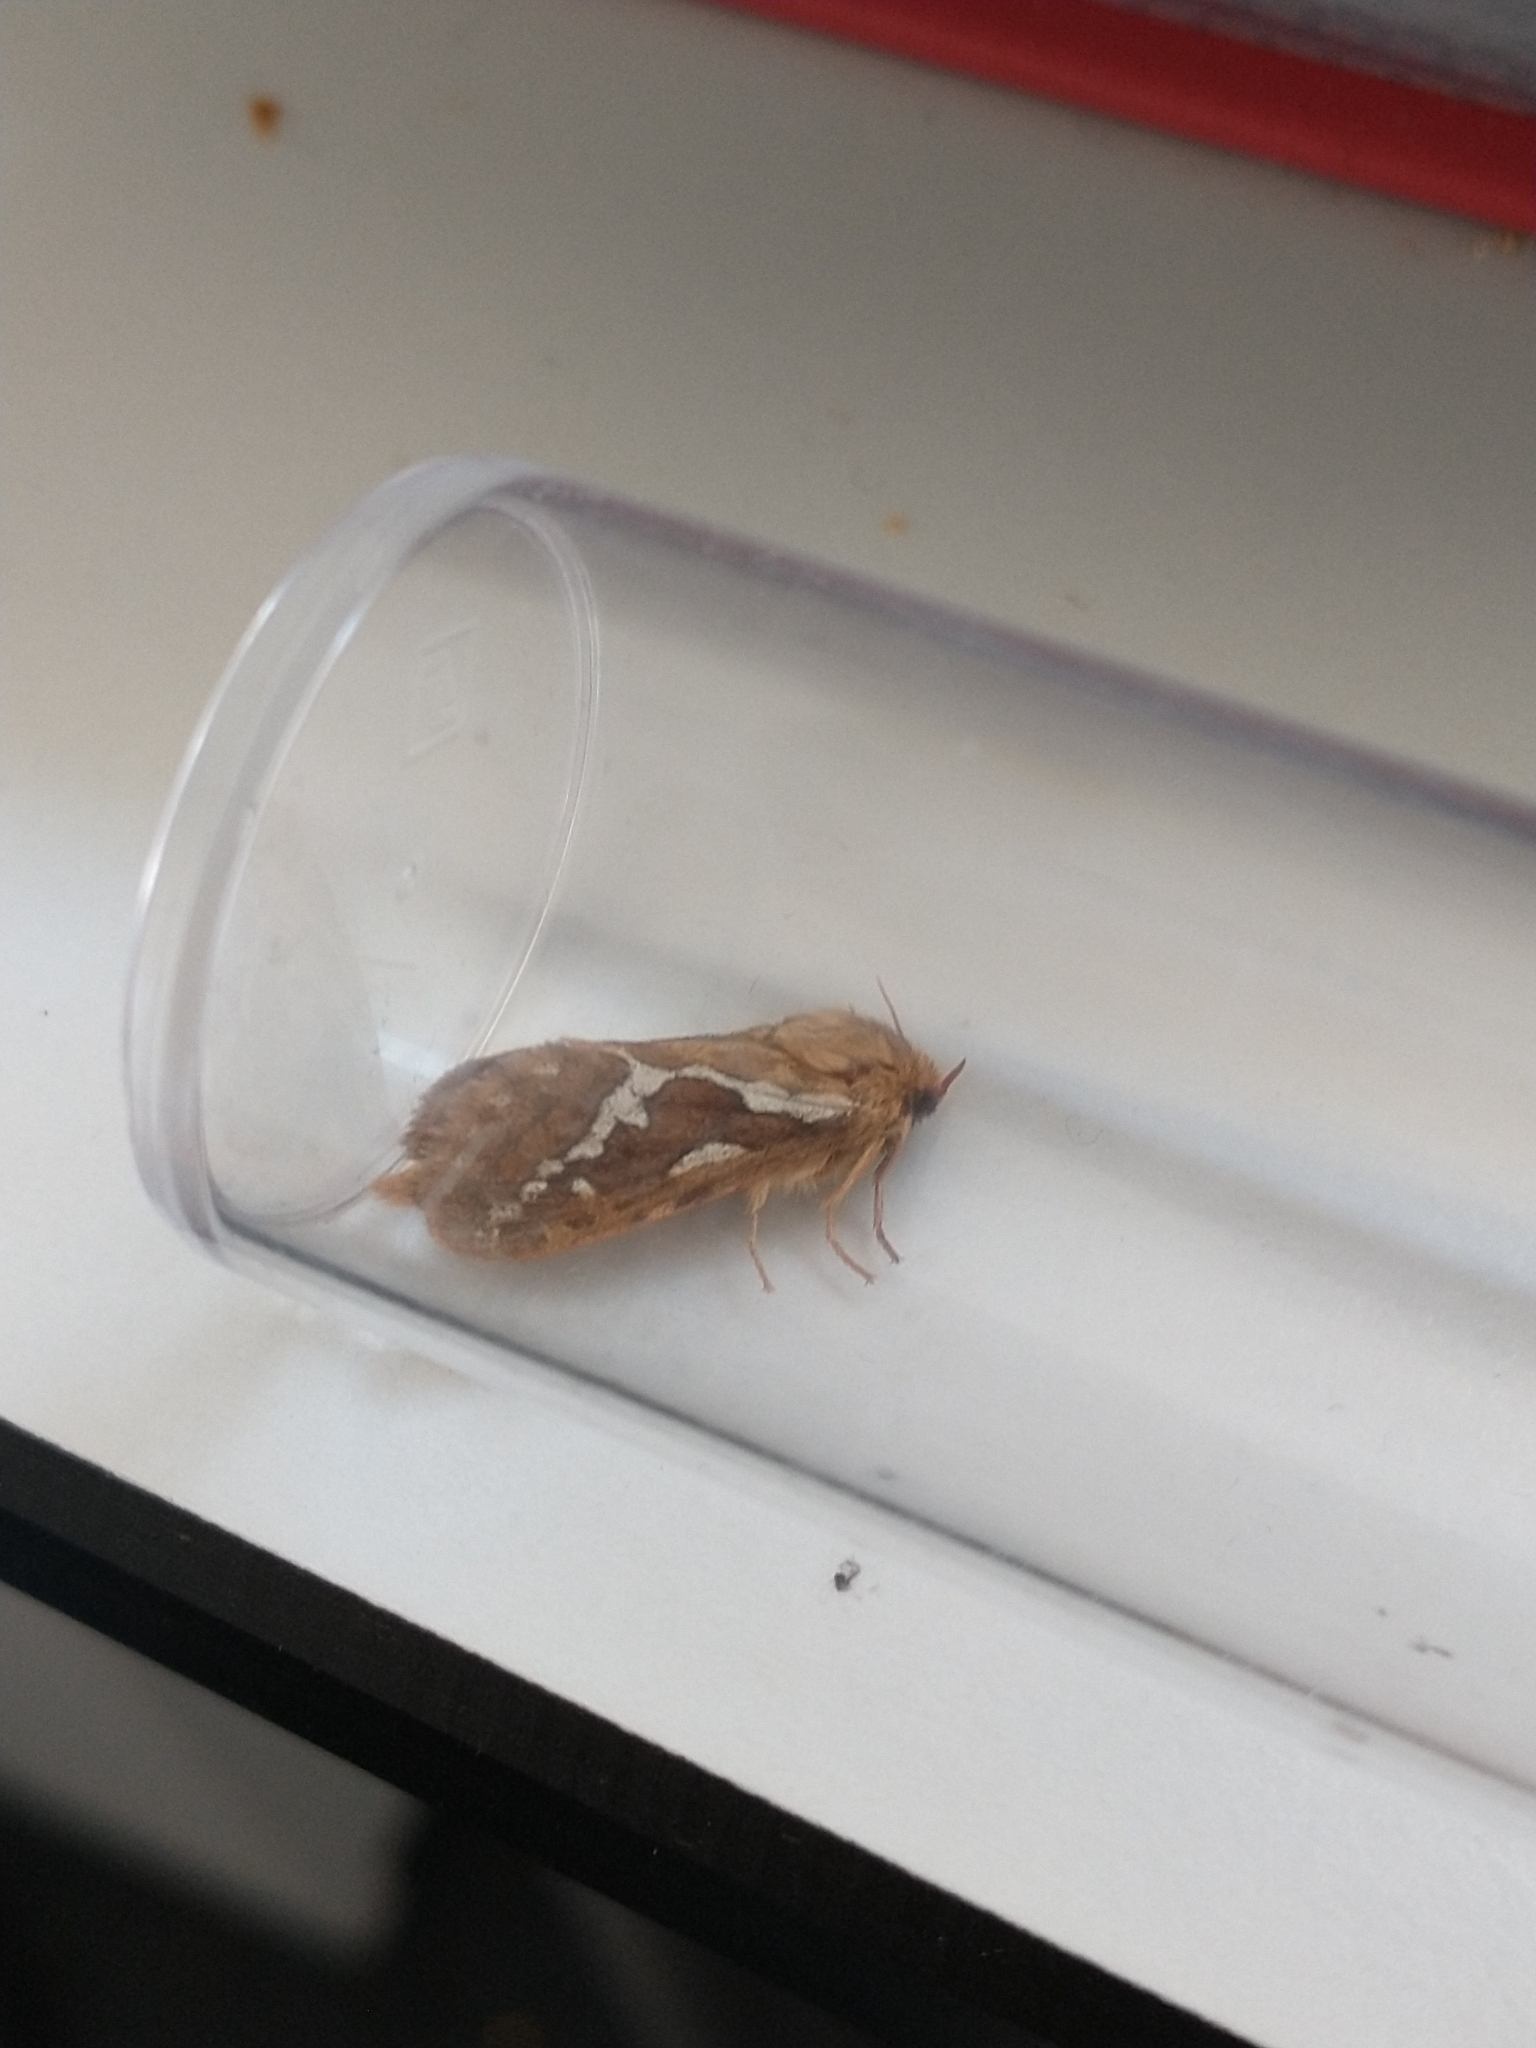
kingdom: Animalia
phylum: Arthropoda
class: Insecta
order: Lepidoptera
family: Hepialidae
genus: Korscheltellus
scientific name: Korscheltellus lupulina
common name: Common swift
